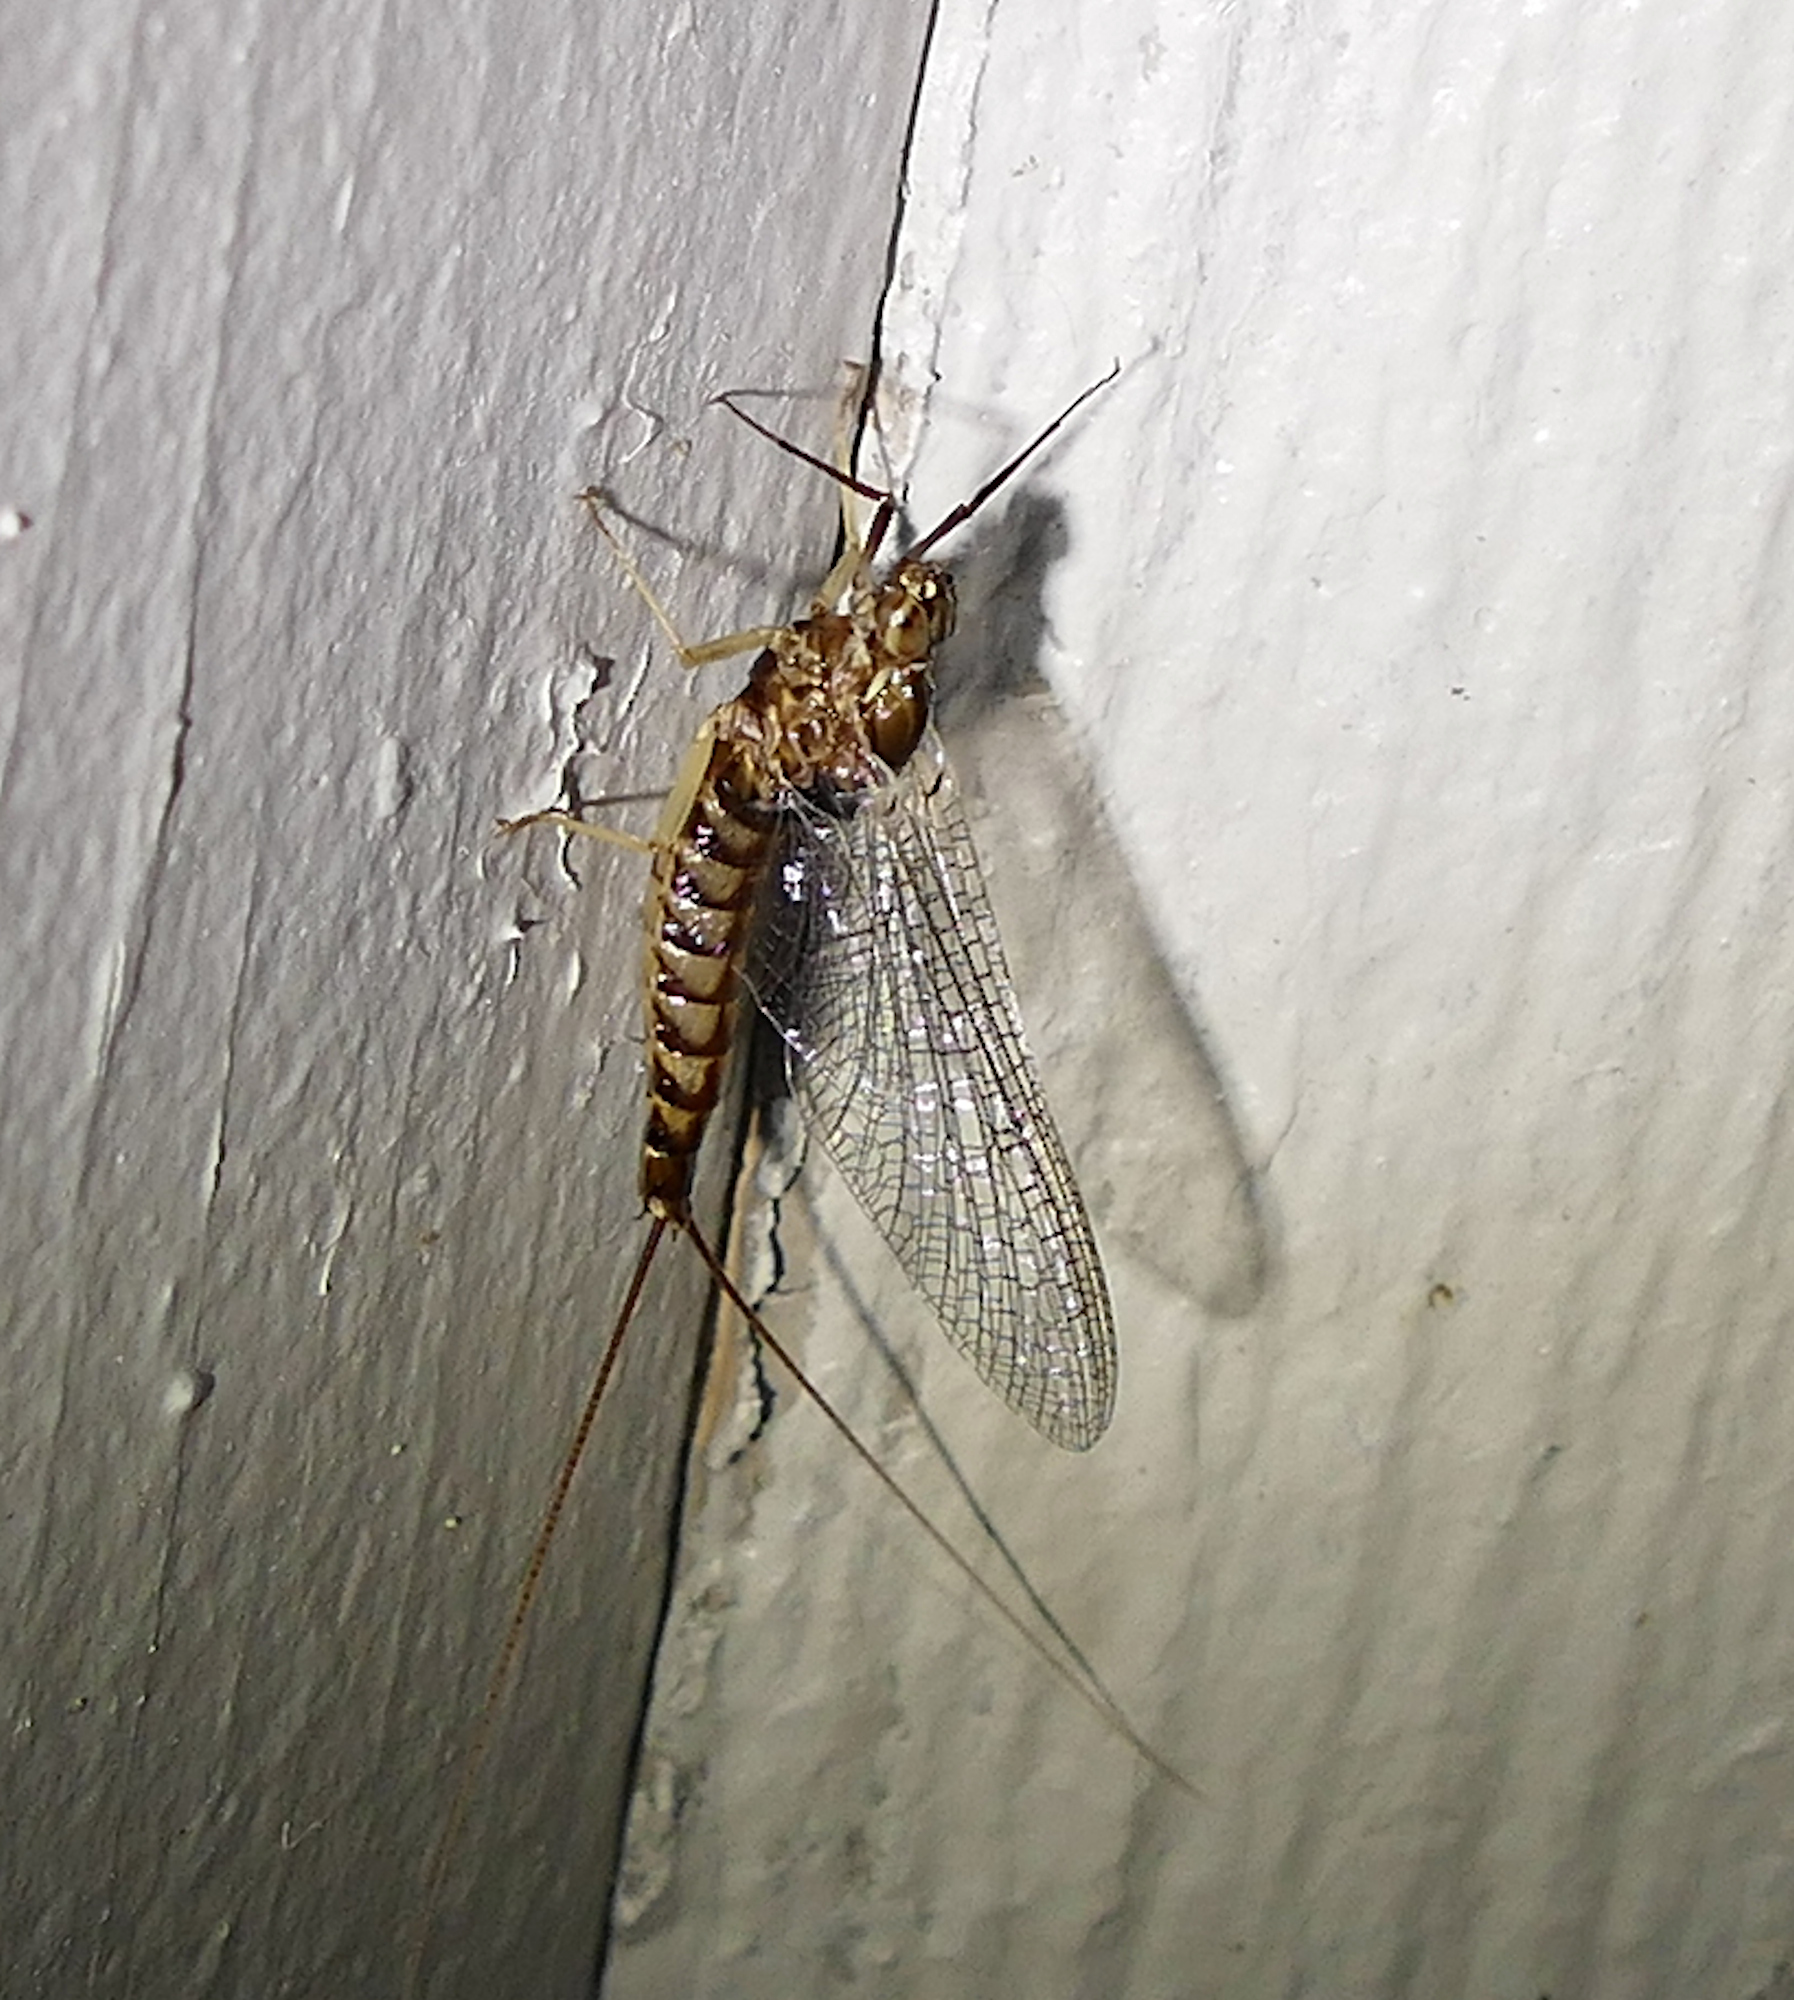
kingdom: Animalia
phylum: Arthropoda
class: Insecta
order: Ephemeroptera
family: Isonychiidae
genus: Isonychia
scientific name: Isonychia sicca
